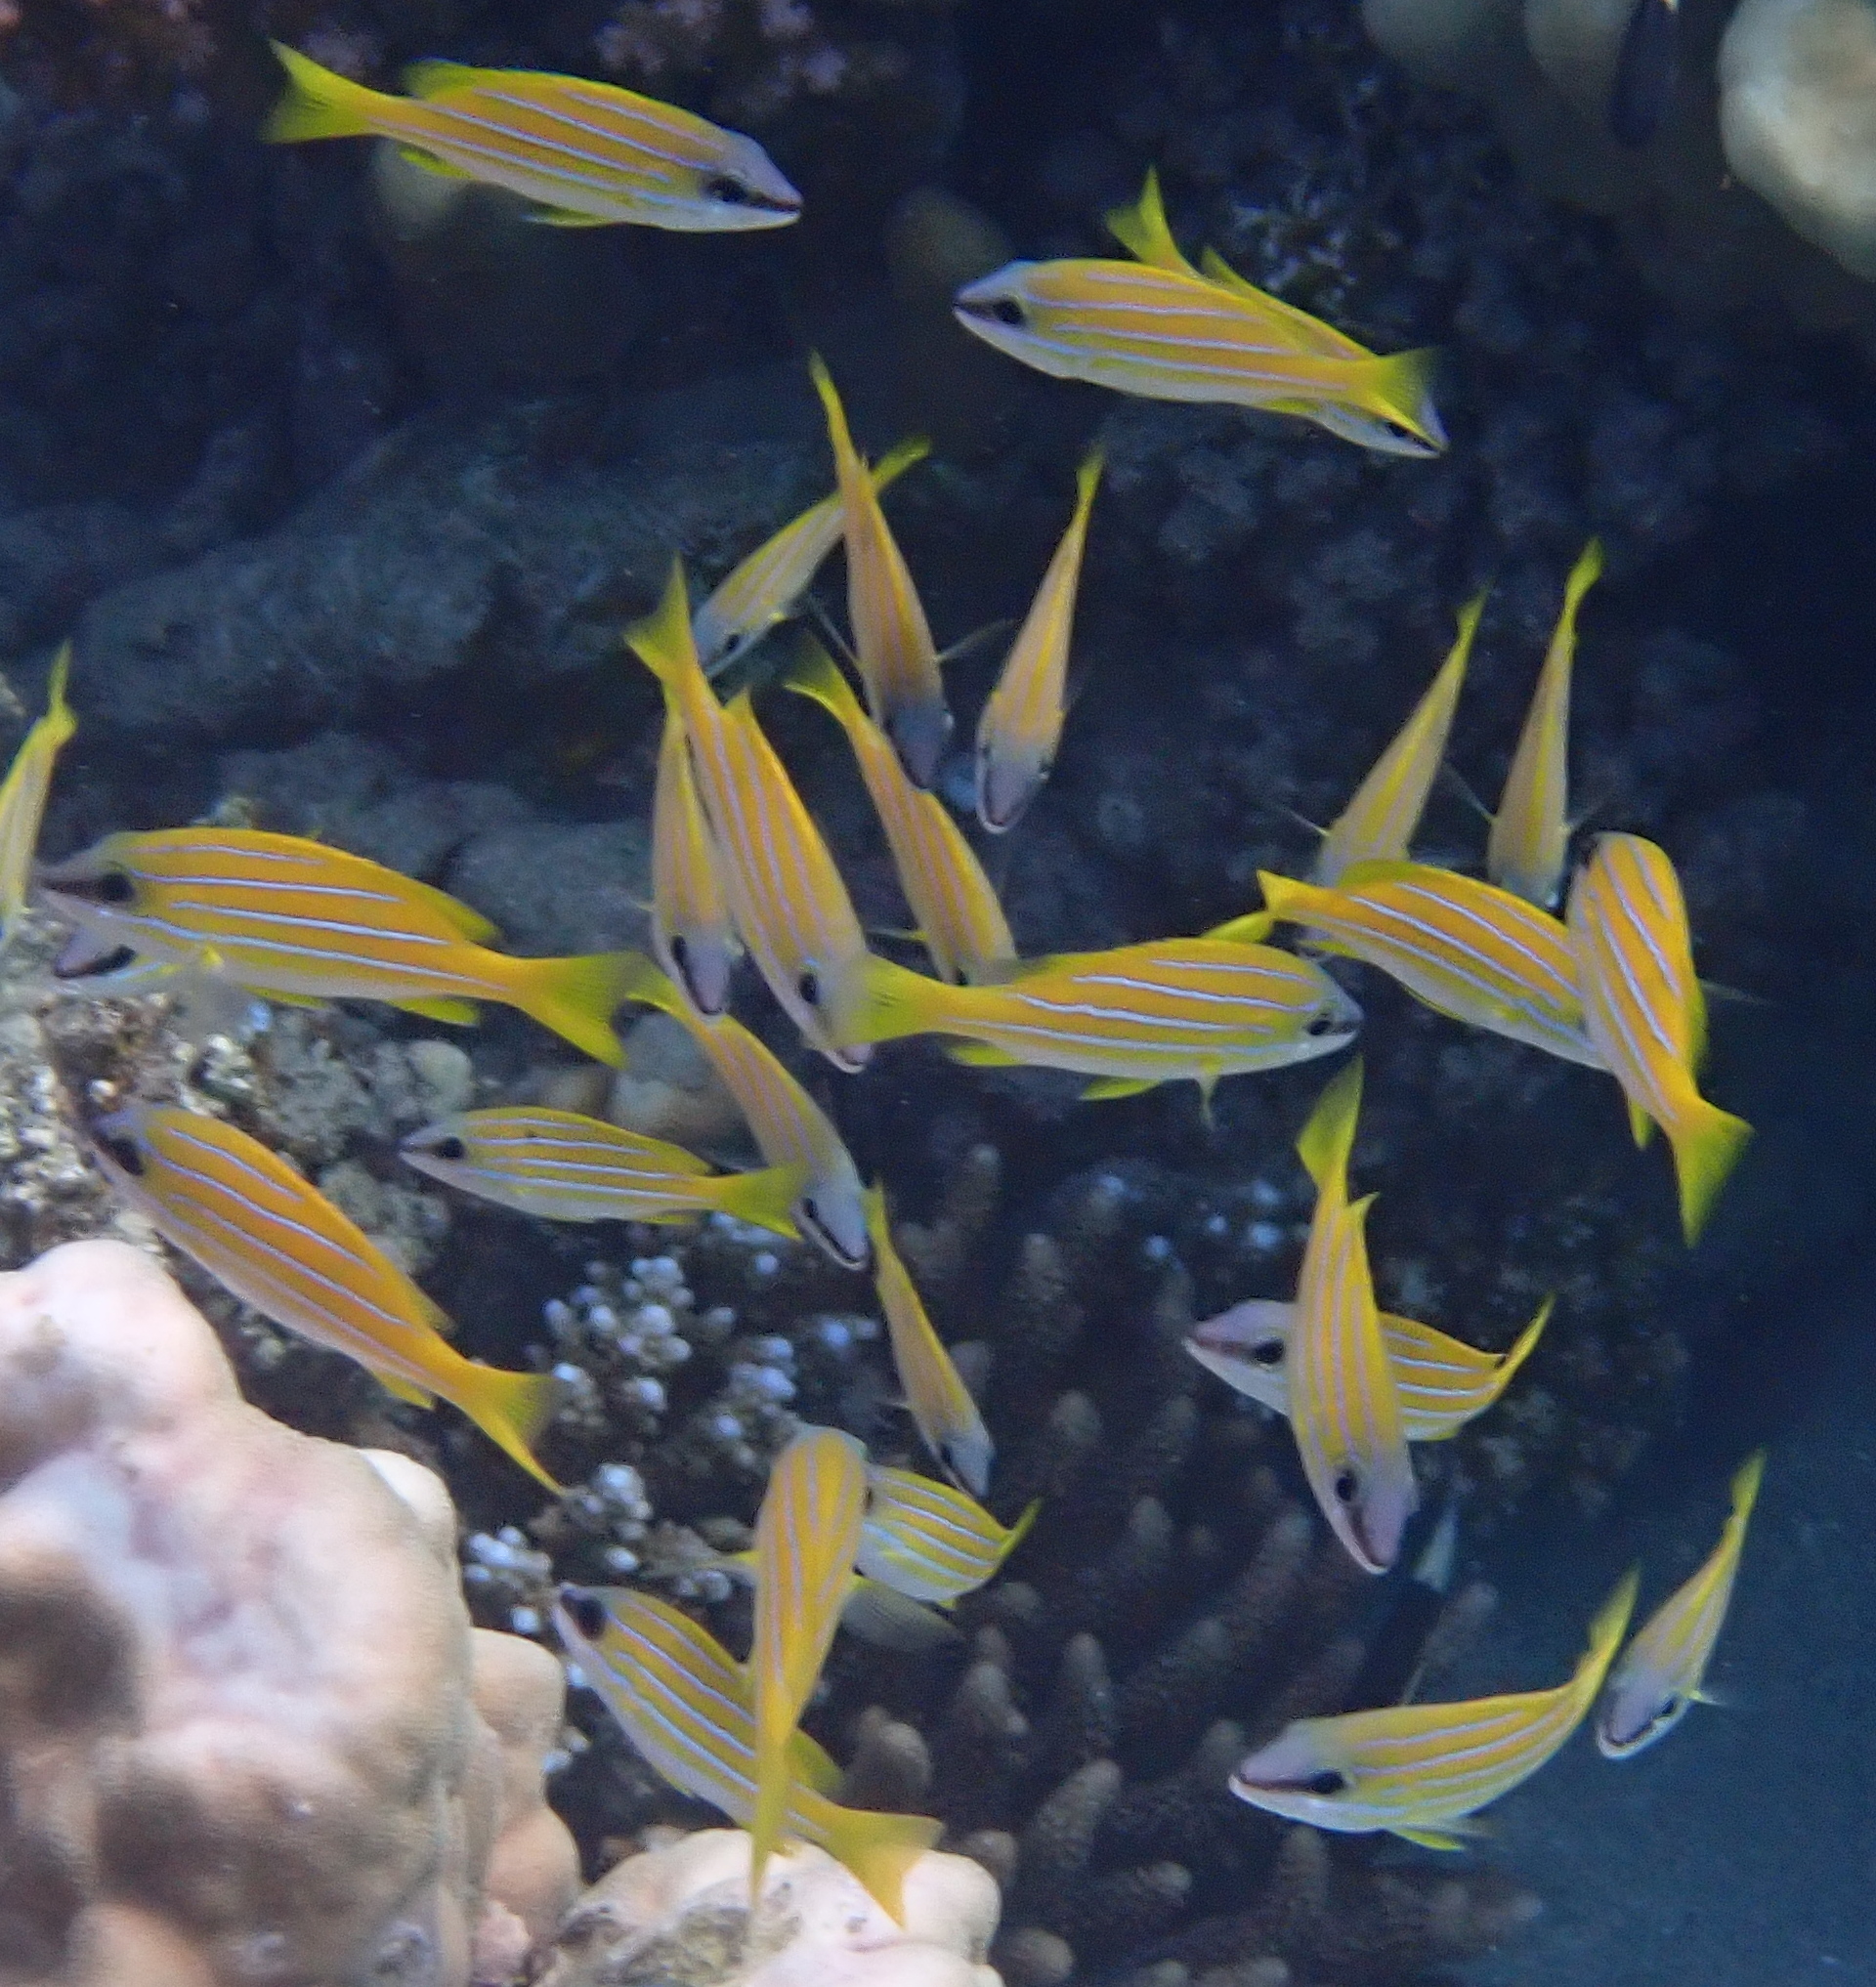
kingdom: Animalia
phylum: Chordata
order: Perciformes
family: Lutjanidae
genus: Lutjanus
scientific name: Lutjanus kasmira
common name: Common bluestripe snapper
